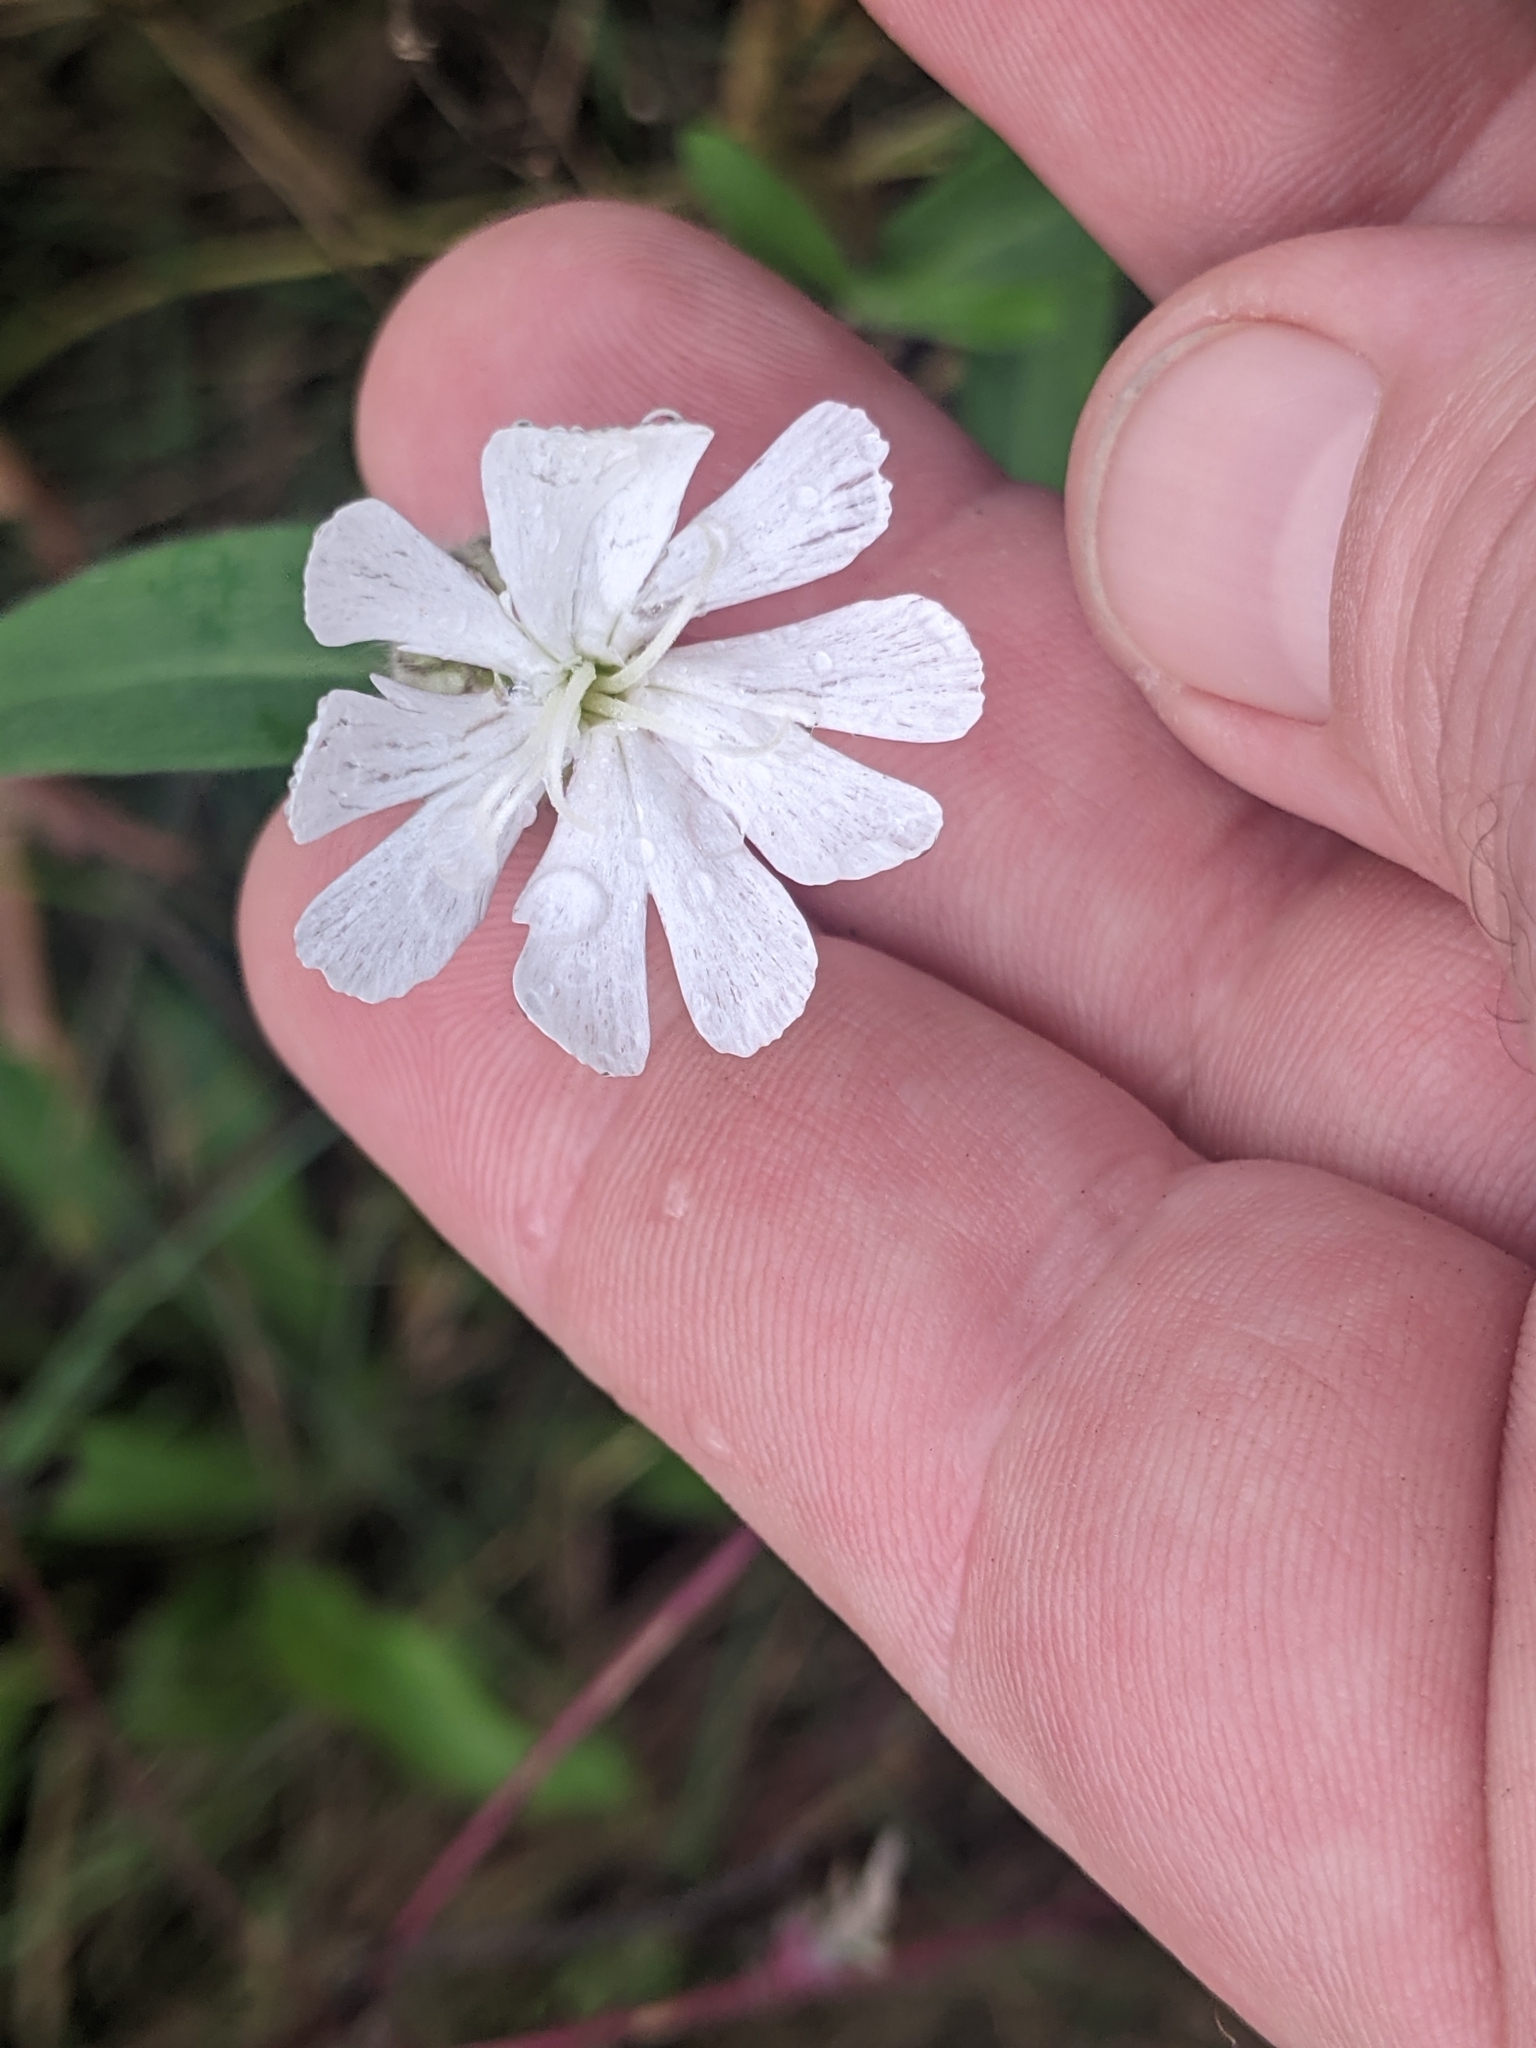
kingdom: Plantae
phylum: Tracheophyta
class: Magnoliopsida
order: Caryophyllales
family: Caryophyllaceae
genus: Silene
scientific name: Silene latifolia
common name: White campion
